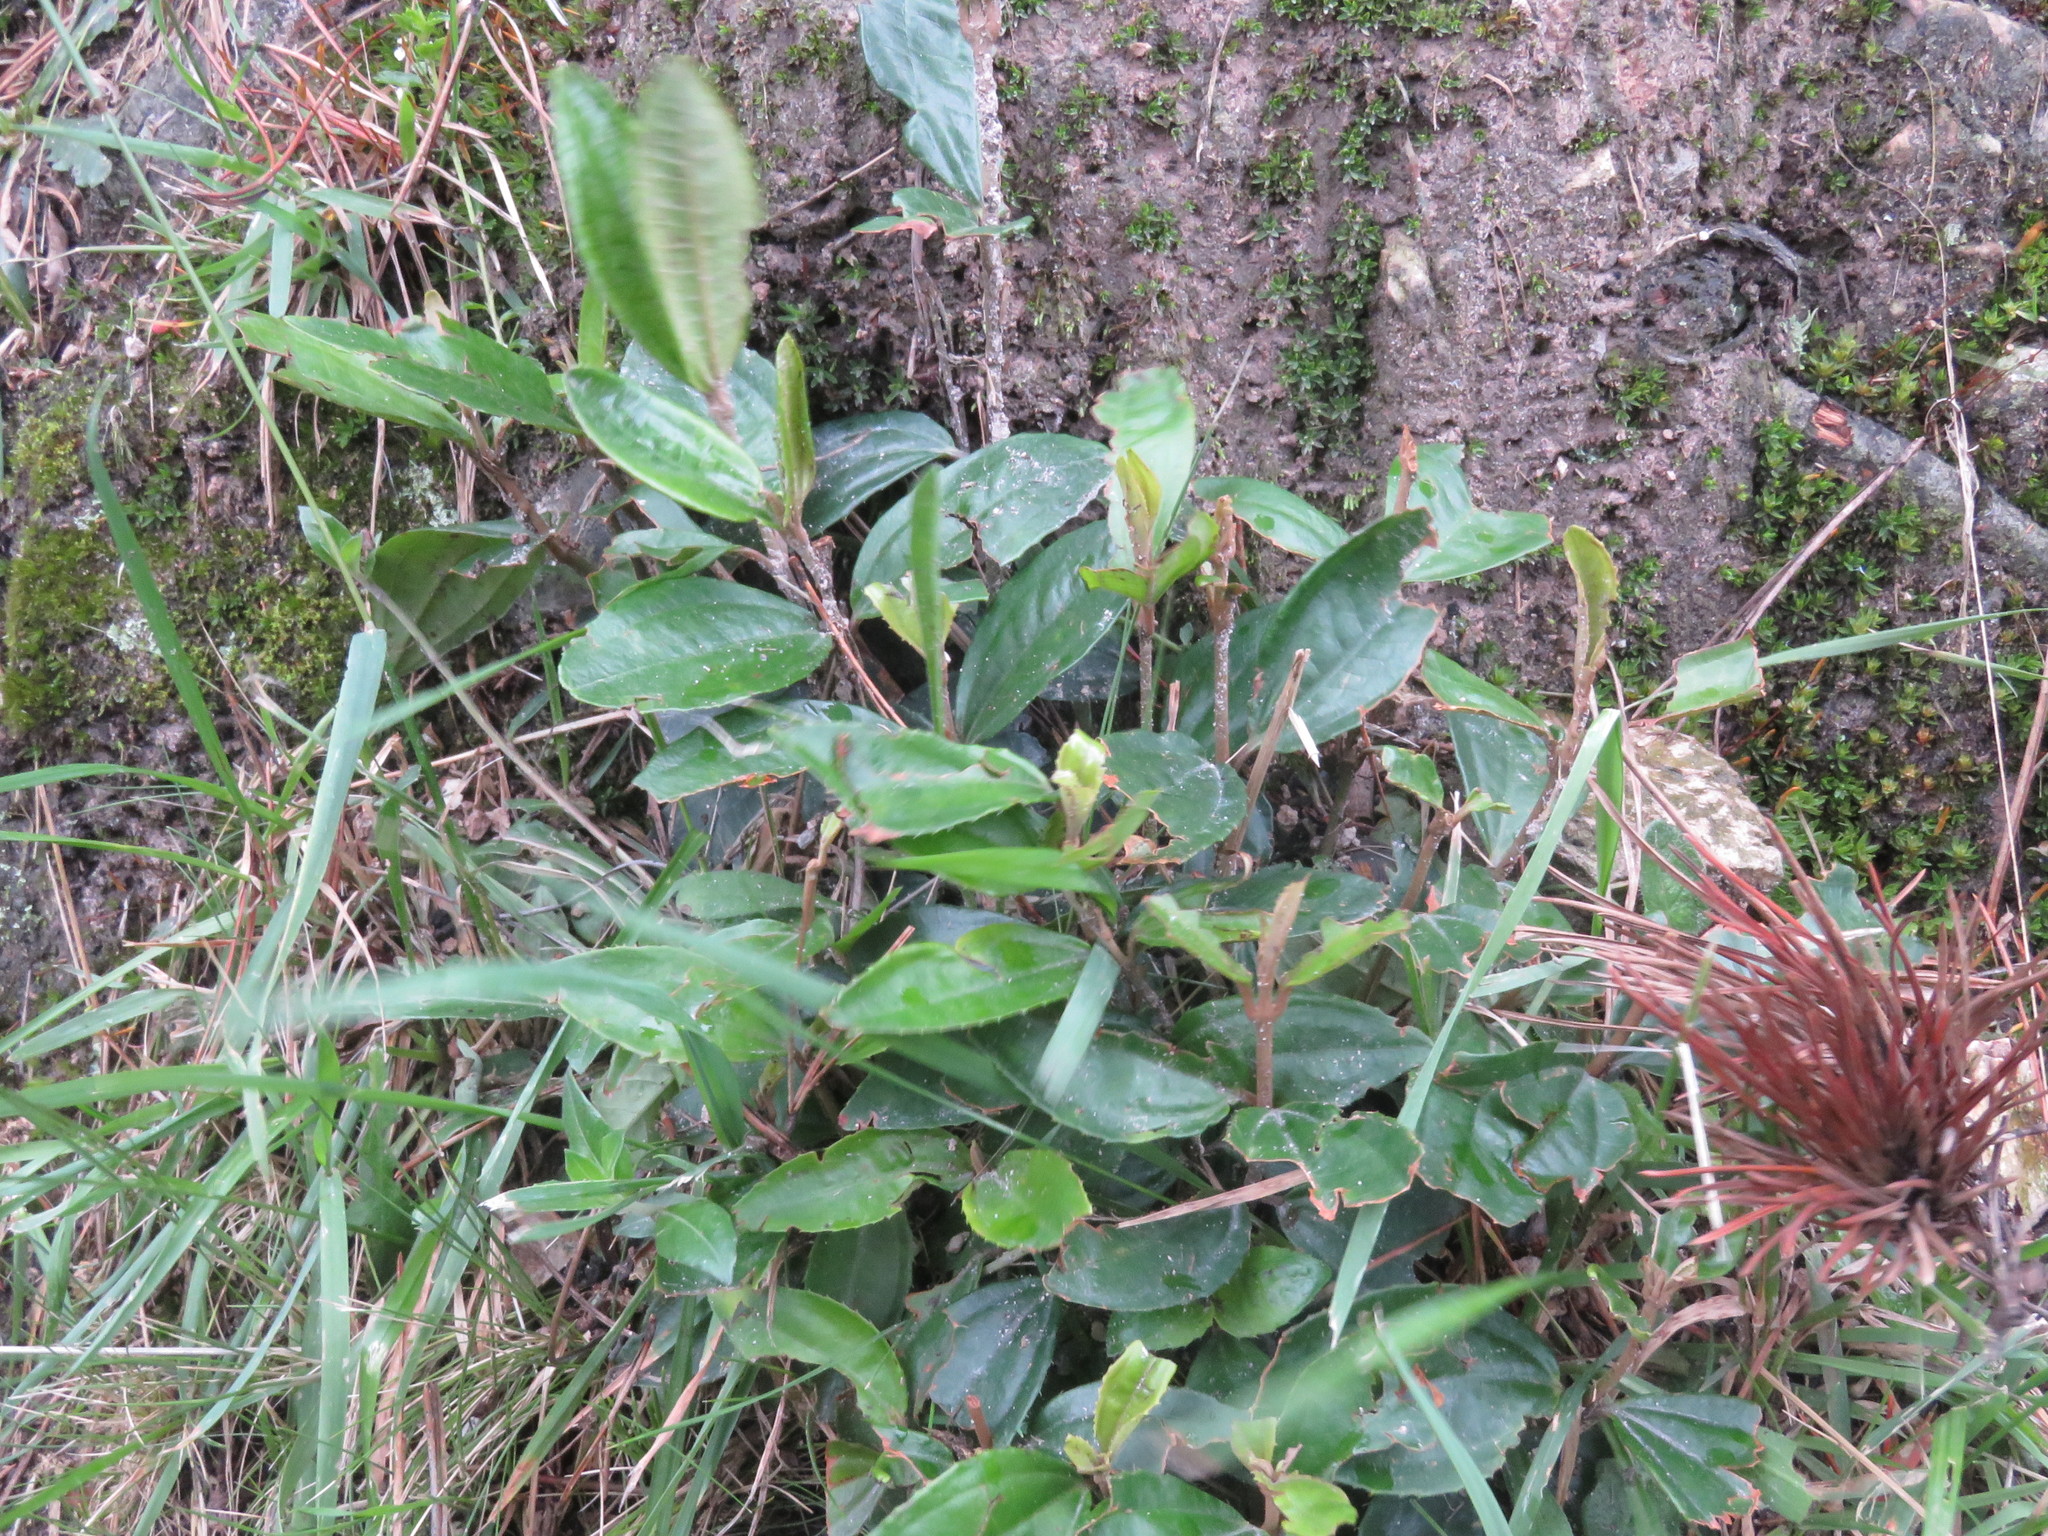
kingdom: Plantae
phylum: Tracheophyta
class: Magnoliopsida
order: Myrtales
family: Melastomataceae
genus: Miconia
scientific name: Miconia squamulosa
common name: Squamulose maya
